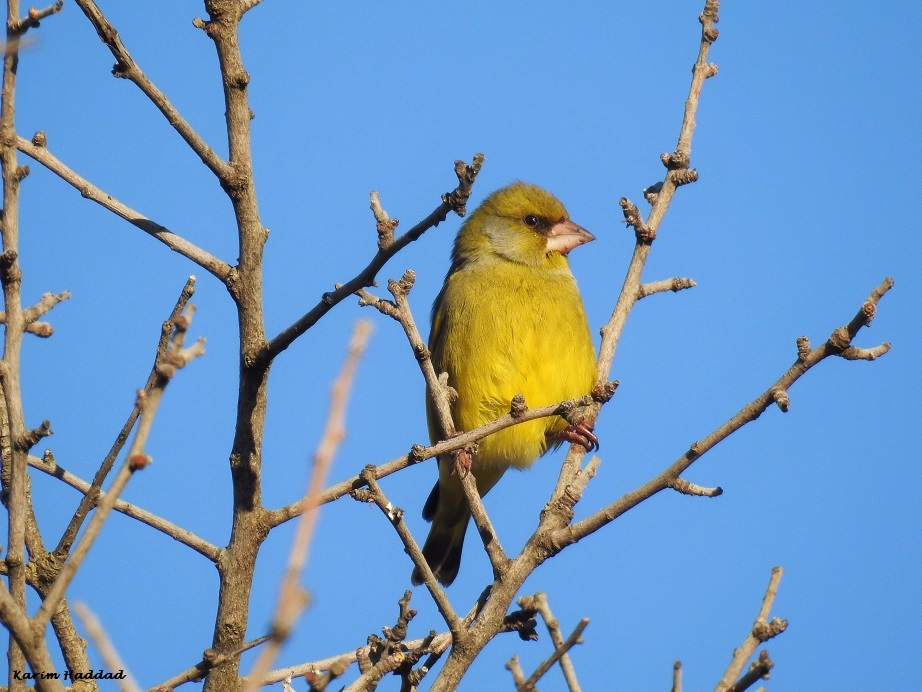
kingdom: Plantae
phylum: Tracheophyta
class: Liliopsida
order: Poales
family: Poaceae
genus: Chloris
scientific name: Chloris chloris
